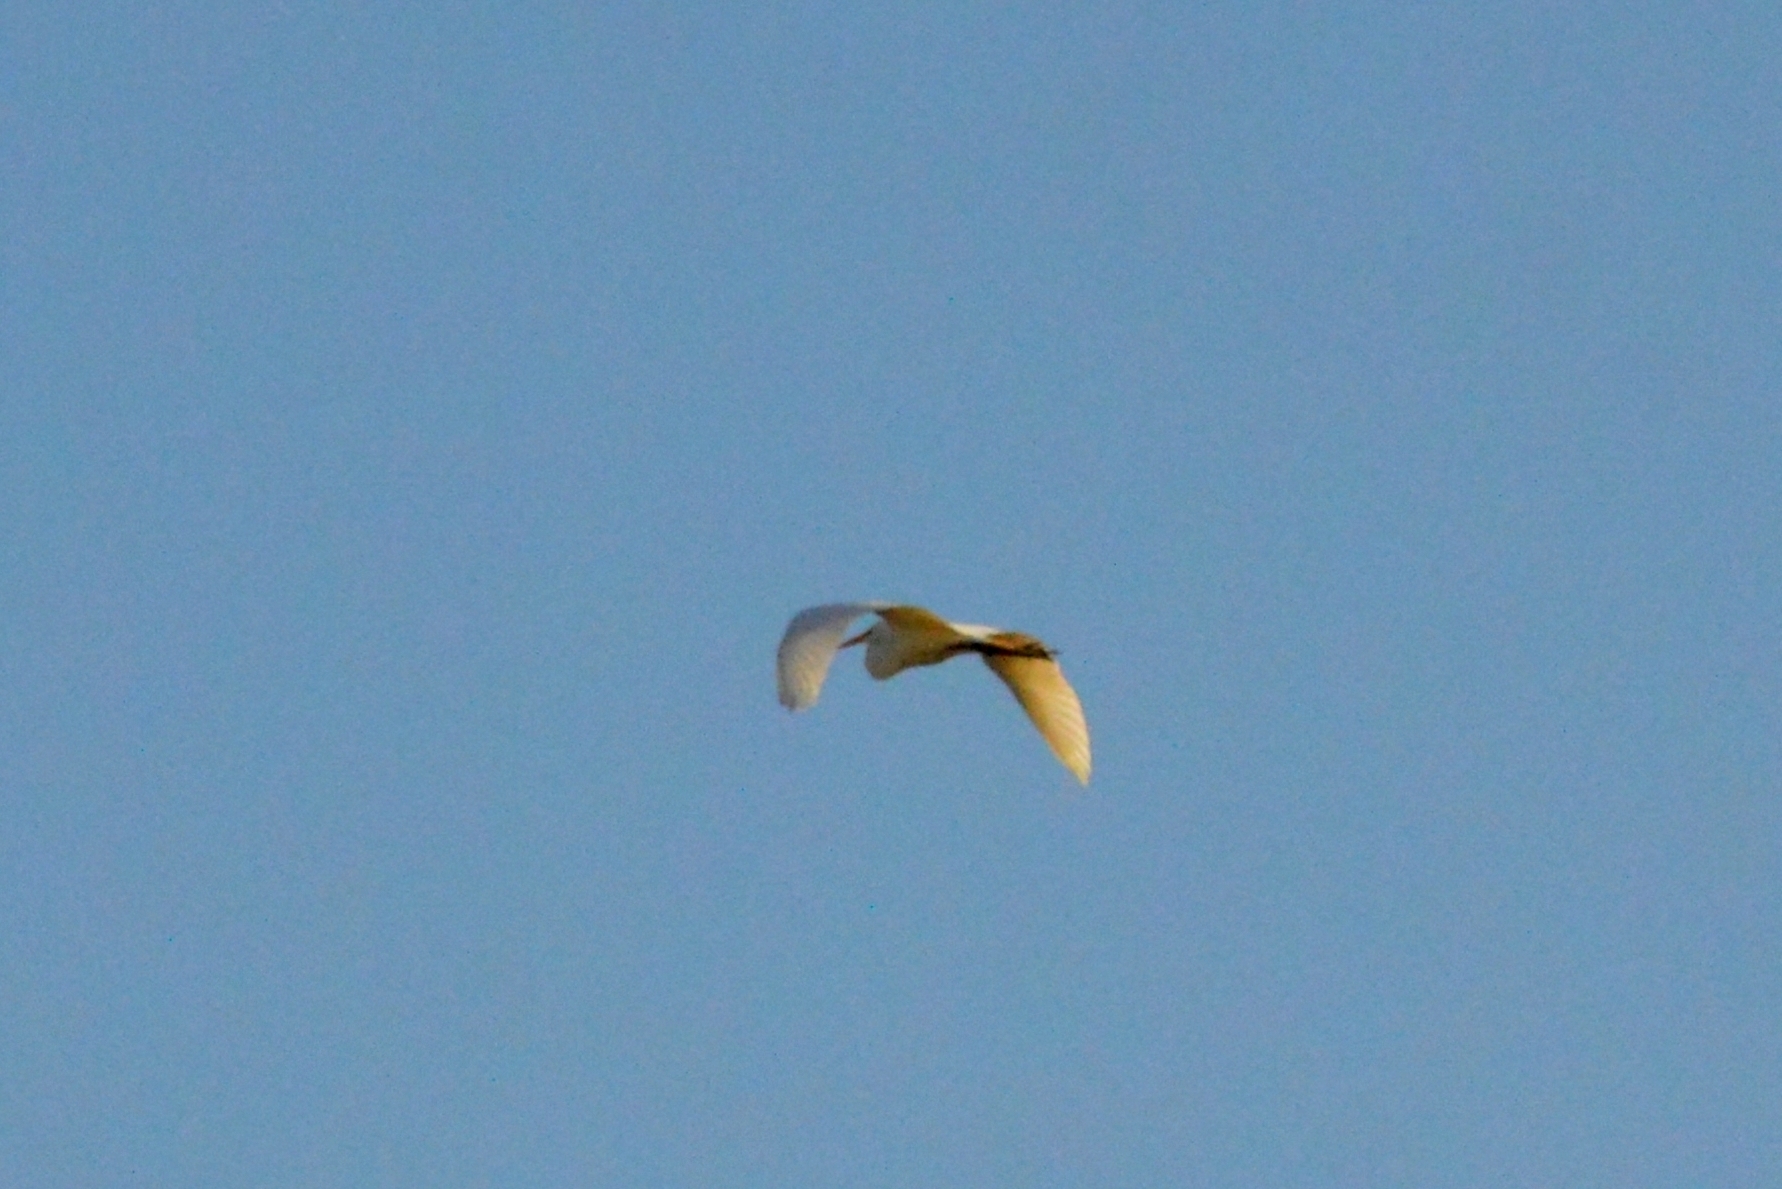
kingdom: Animalia
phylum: Chordata
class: Aves
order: Pelecaniformes
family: Ardeidae
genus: Ardea
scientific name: Ardea alba
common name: Great egret
